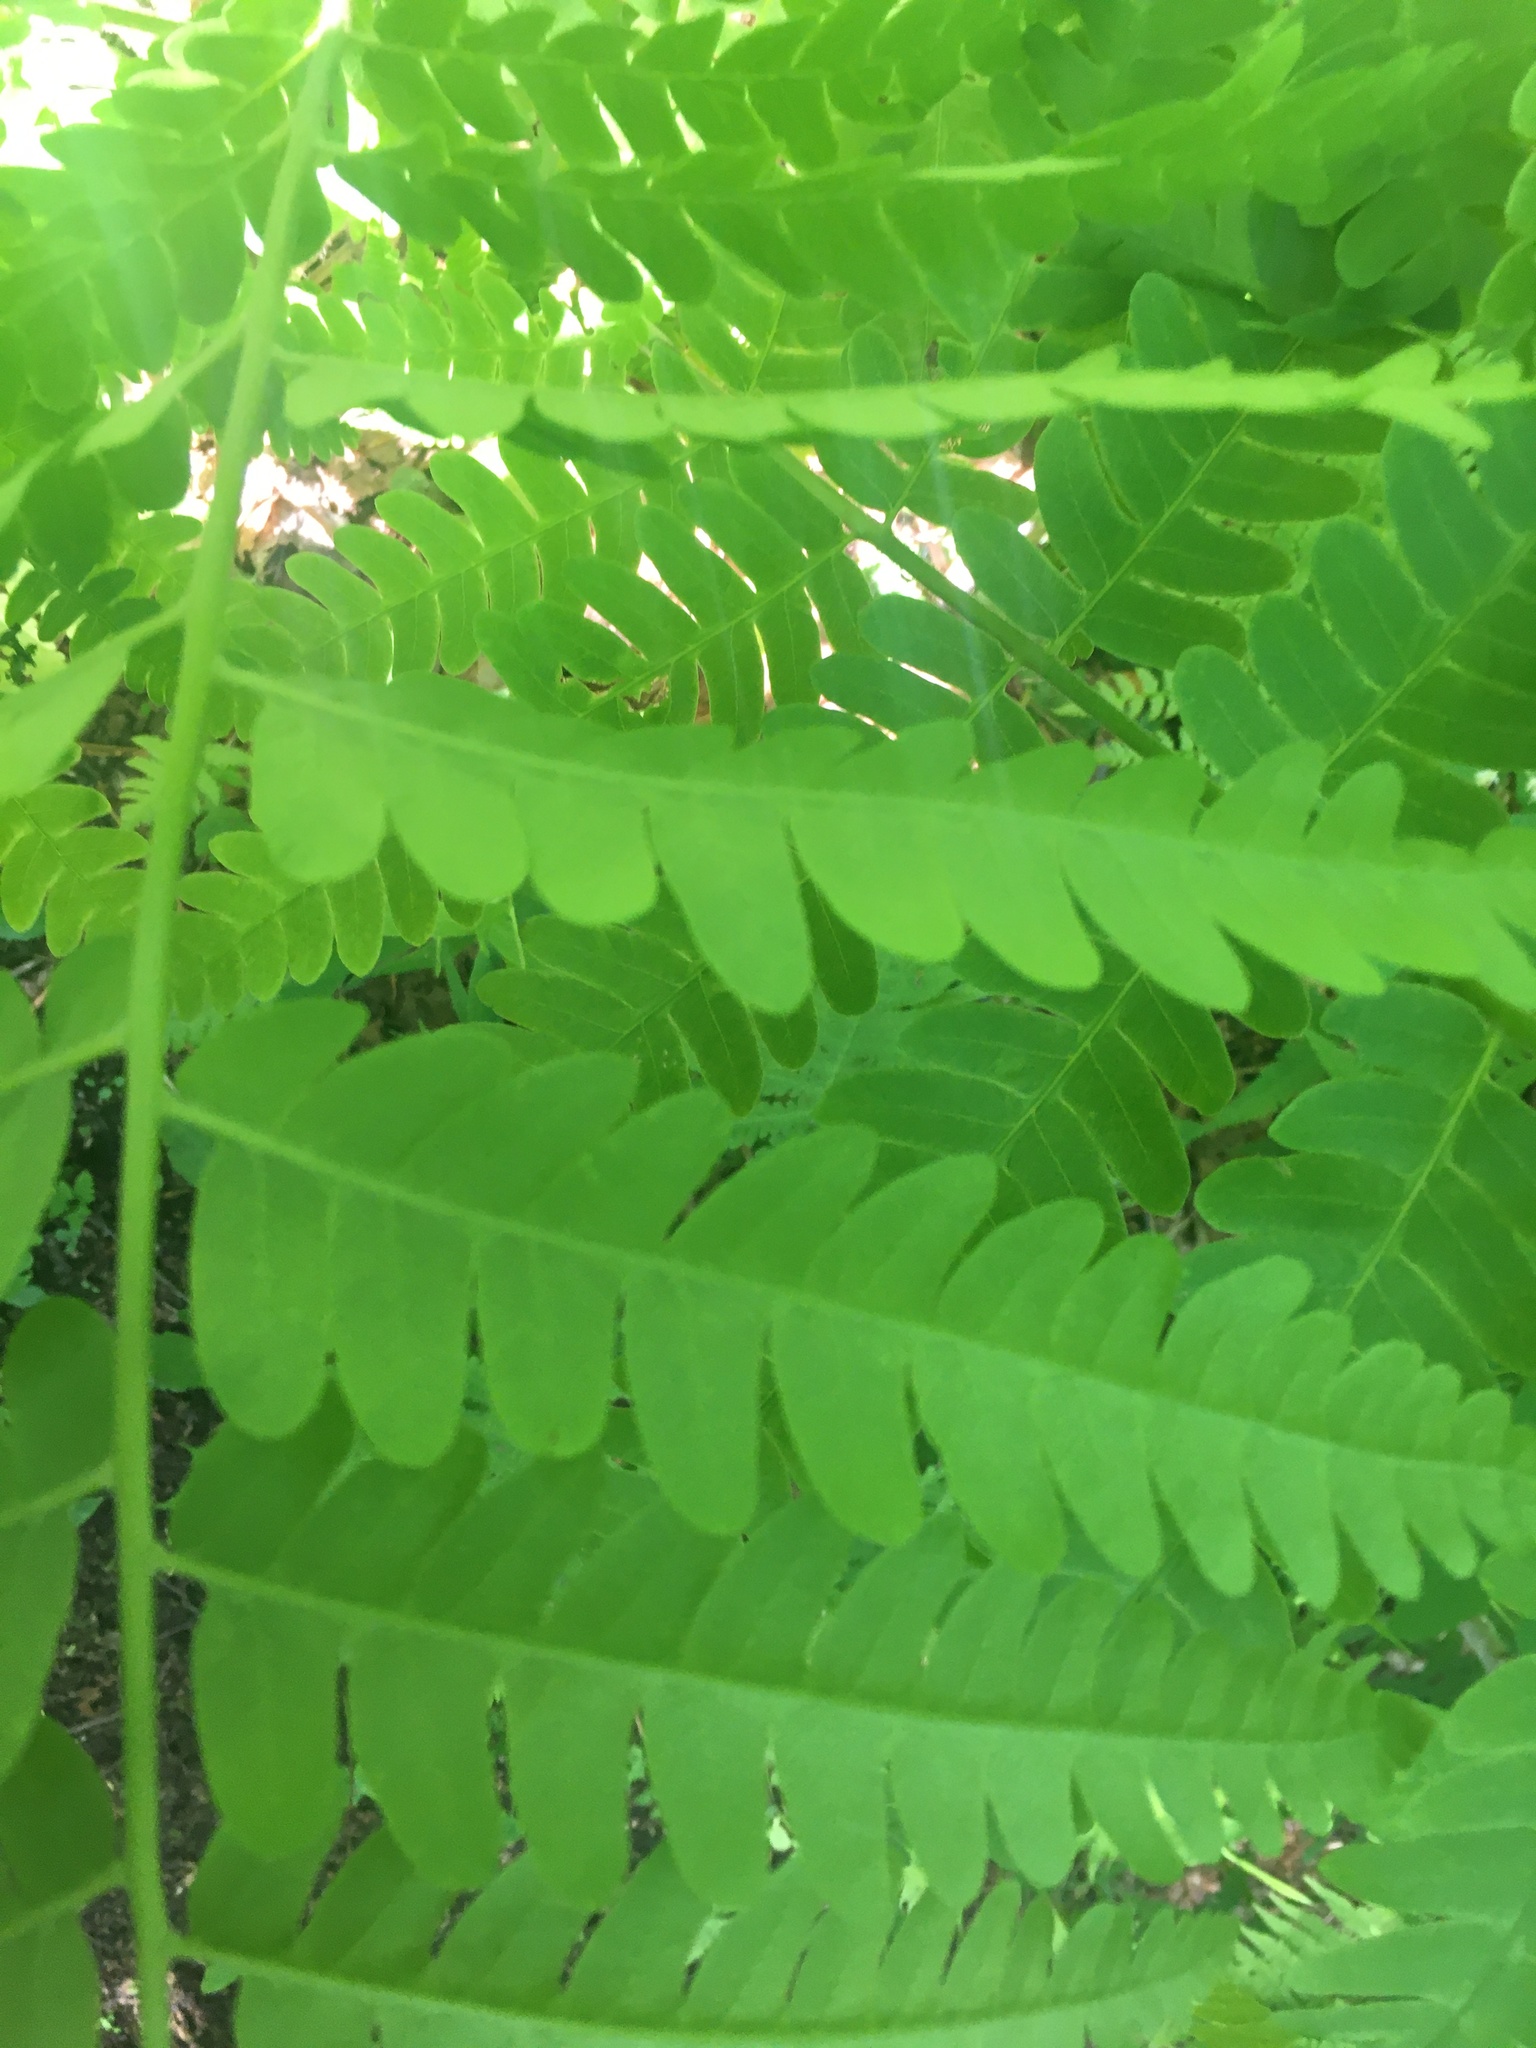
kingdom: Plantae
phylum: Tracheophyta
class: Polypodiopsida
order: Osmundales
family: Osmundaceae
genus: Claytosmunda
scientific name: Claytosmunda claytoniana
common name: Clayton's fern
